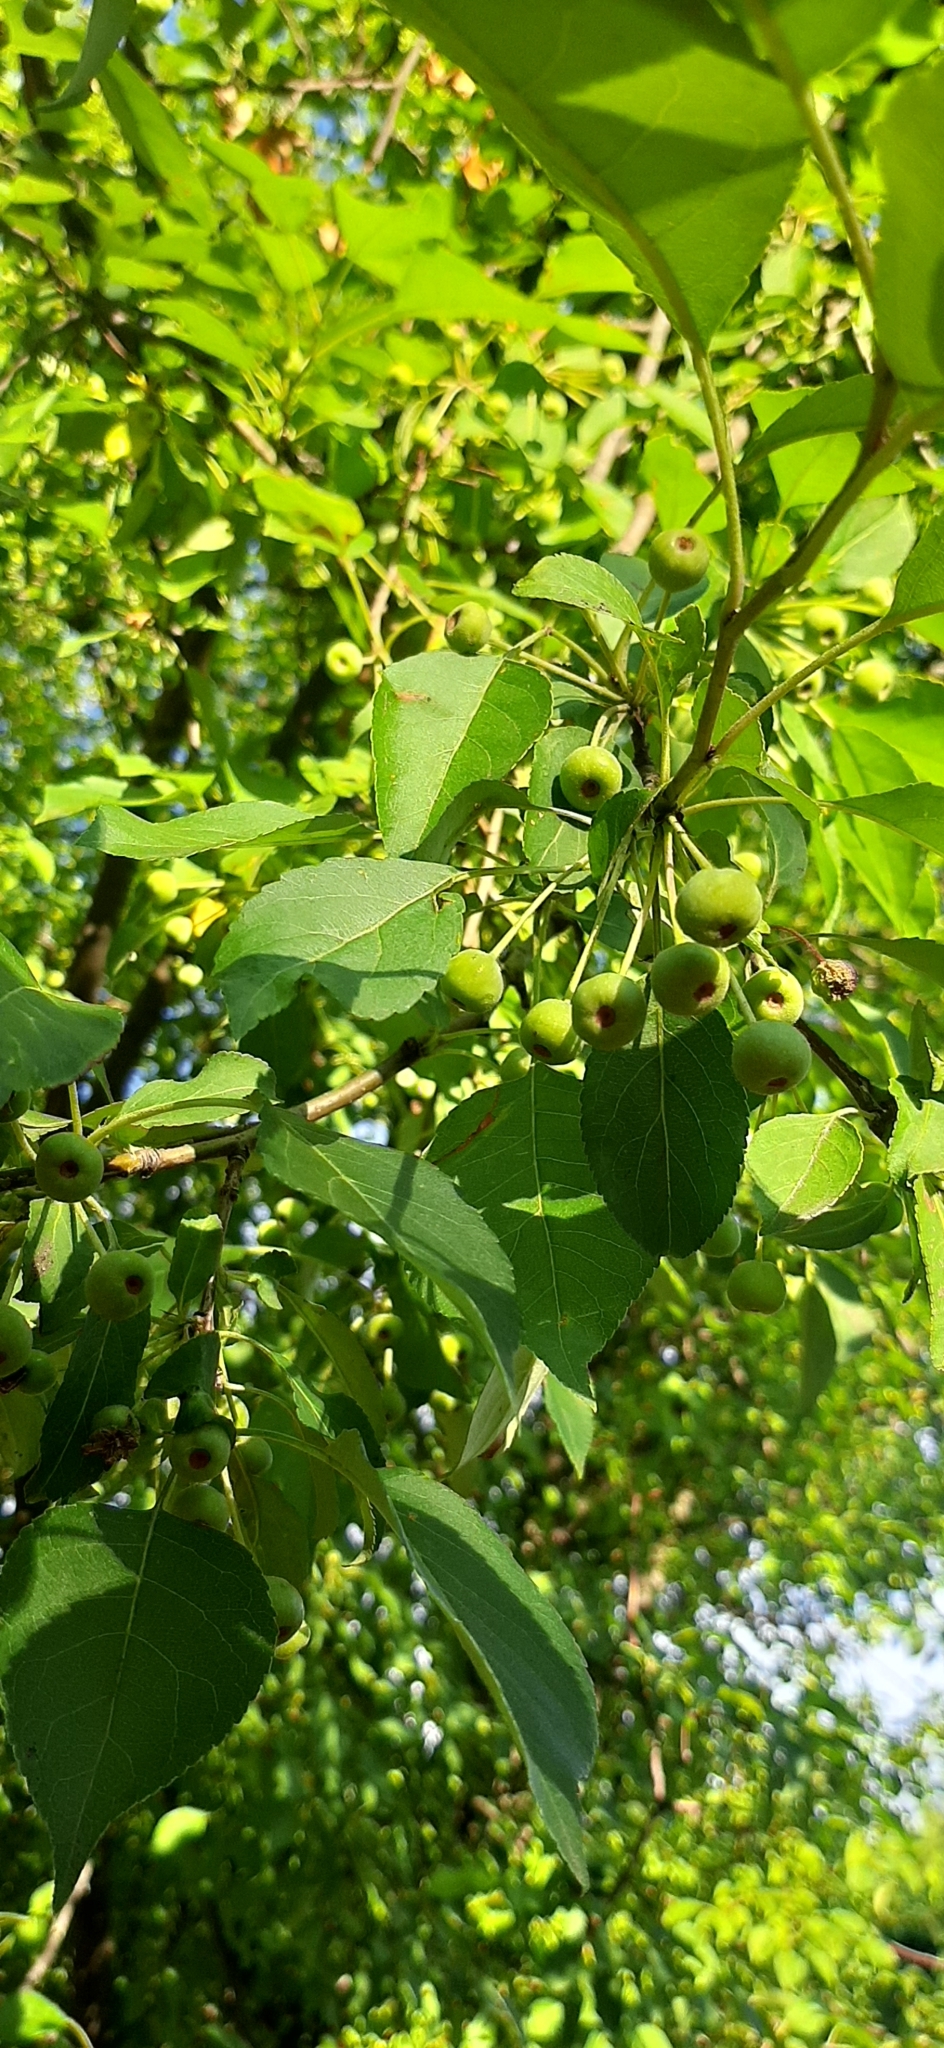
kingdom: Plantae
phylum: Tracheophyta
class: Magnoliopsida
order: Rosales
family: Rosaceae
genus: Malus
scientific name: Malus baccata
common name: Siberian crab
